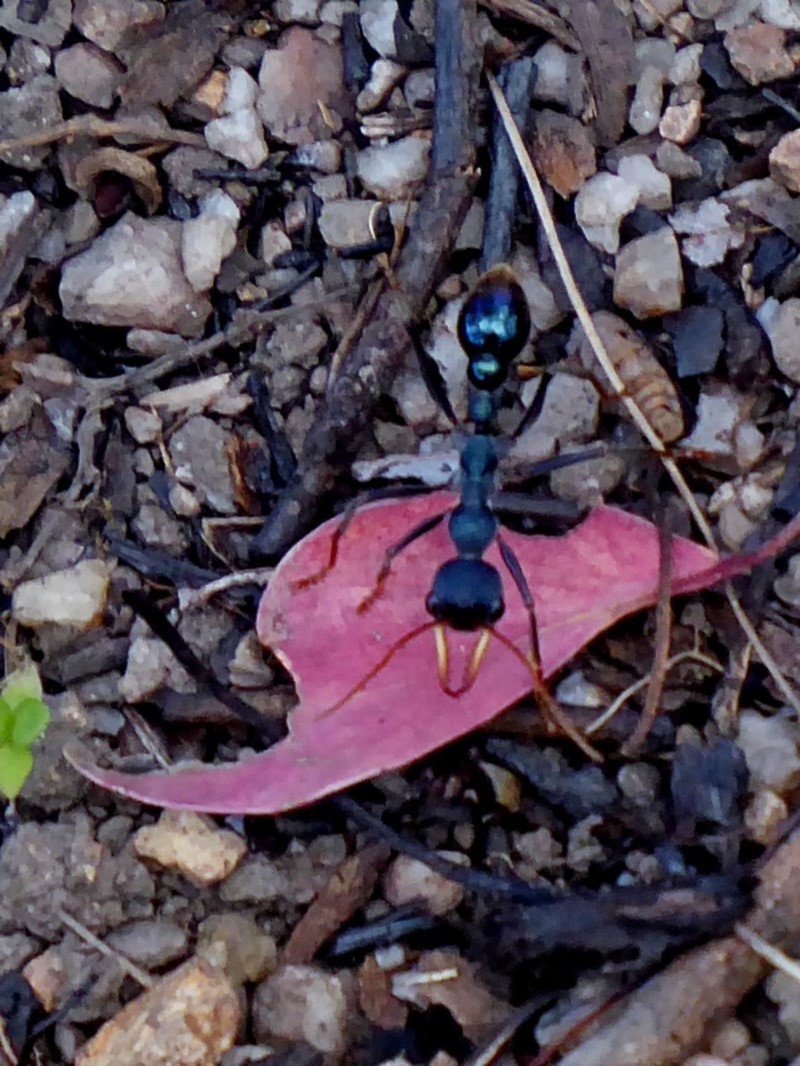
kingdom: Animalia
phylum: Arthropoda
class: Insecta
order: Hymenoptera
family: Formicidae
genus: Myrmecia
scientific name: Myrmecia tarsata
